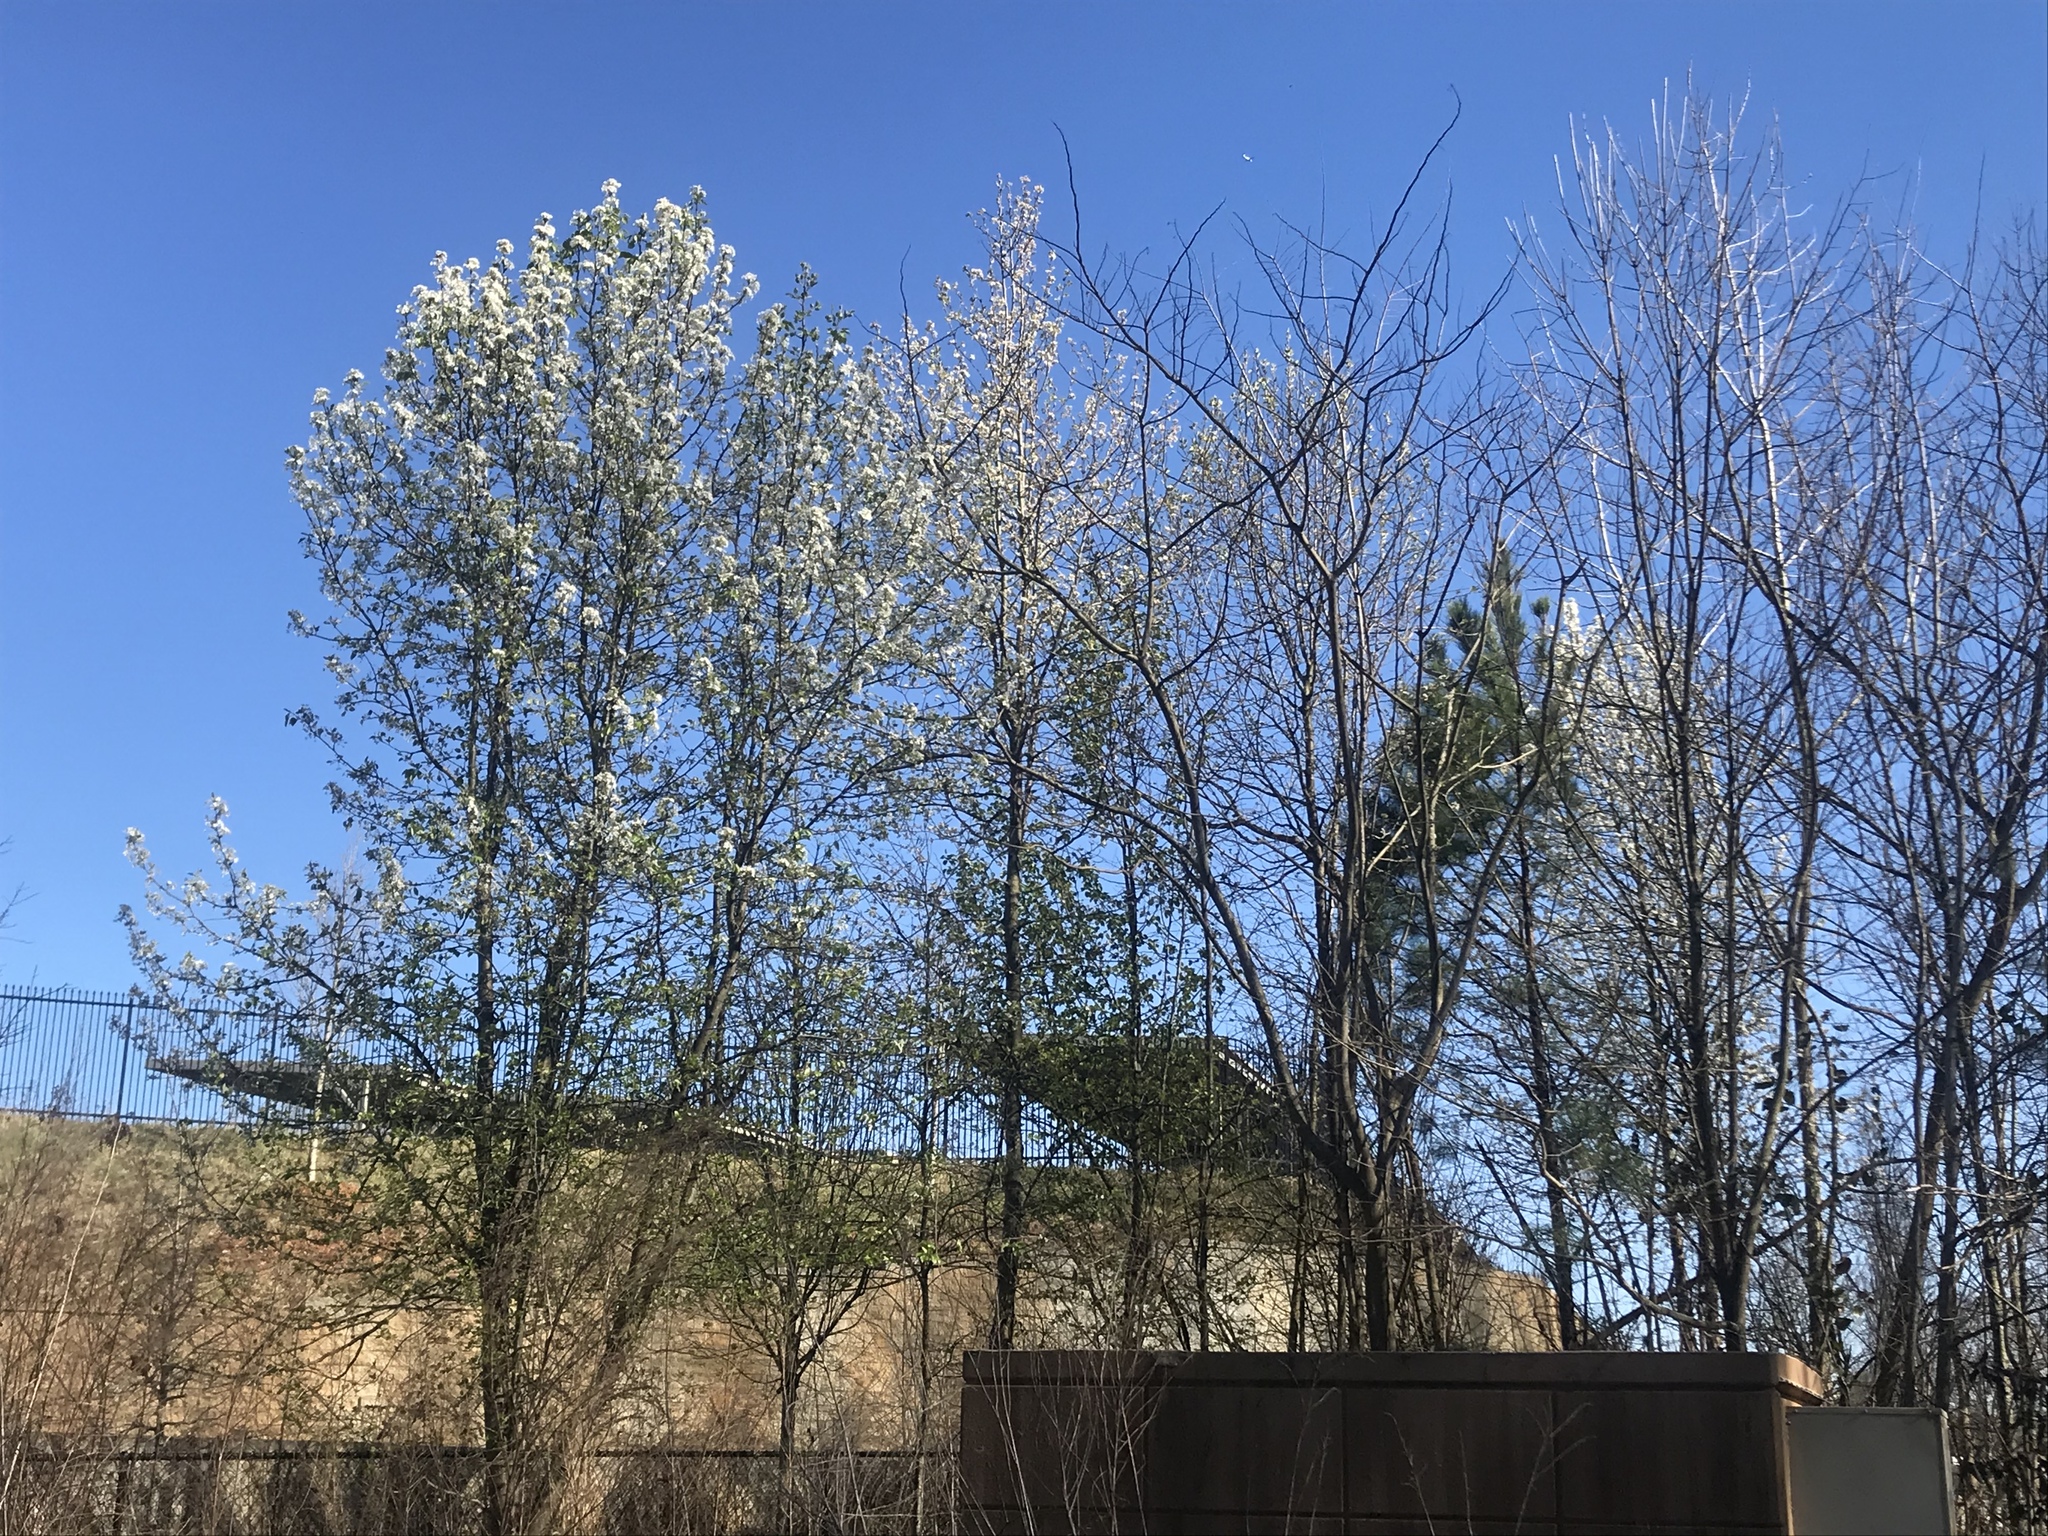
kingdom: Plantae
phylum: Tracheophyta
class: Magnoliopsida
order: Rosales
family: Rosaceae
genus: Pyrus
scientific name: Pyrus calleryana
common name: Callery pear
